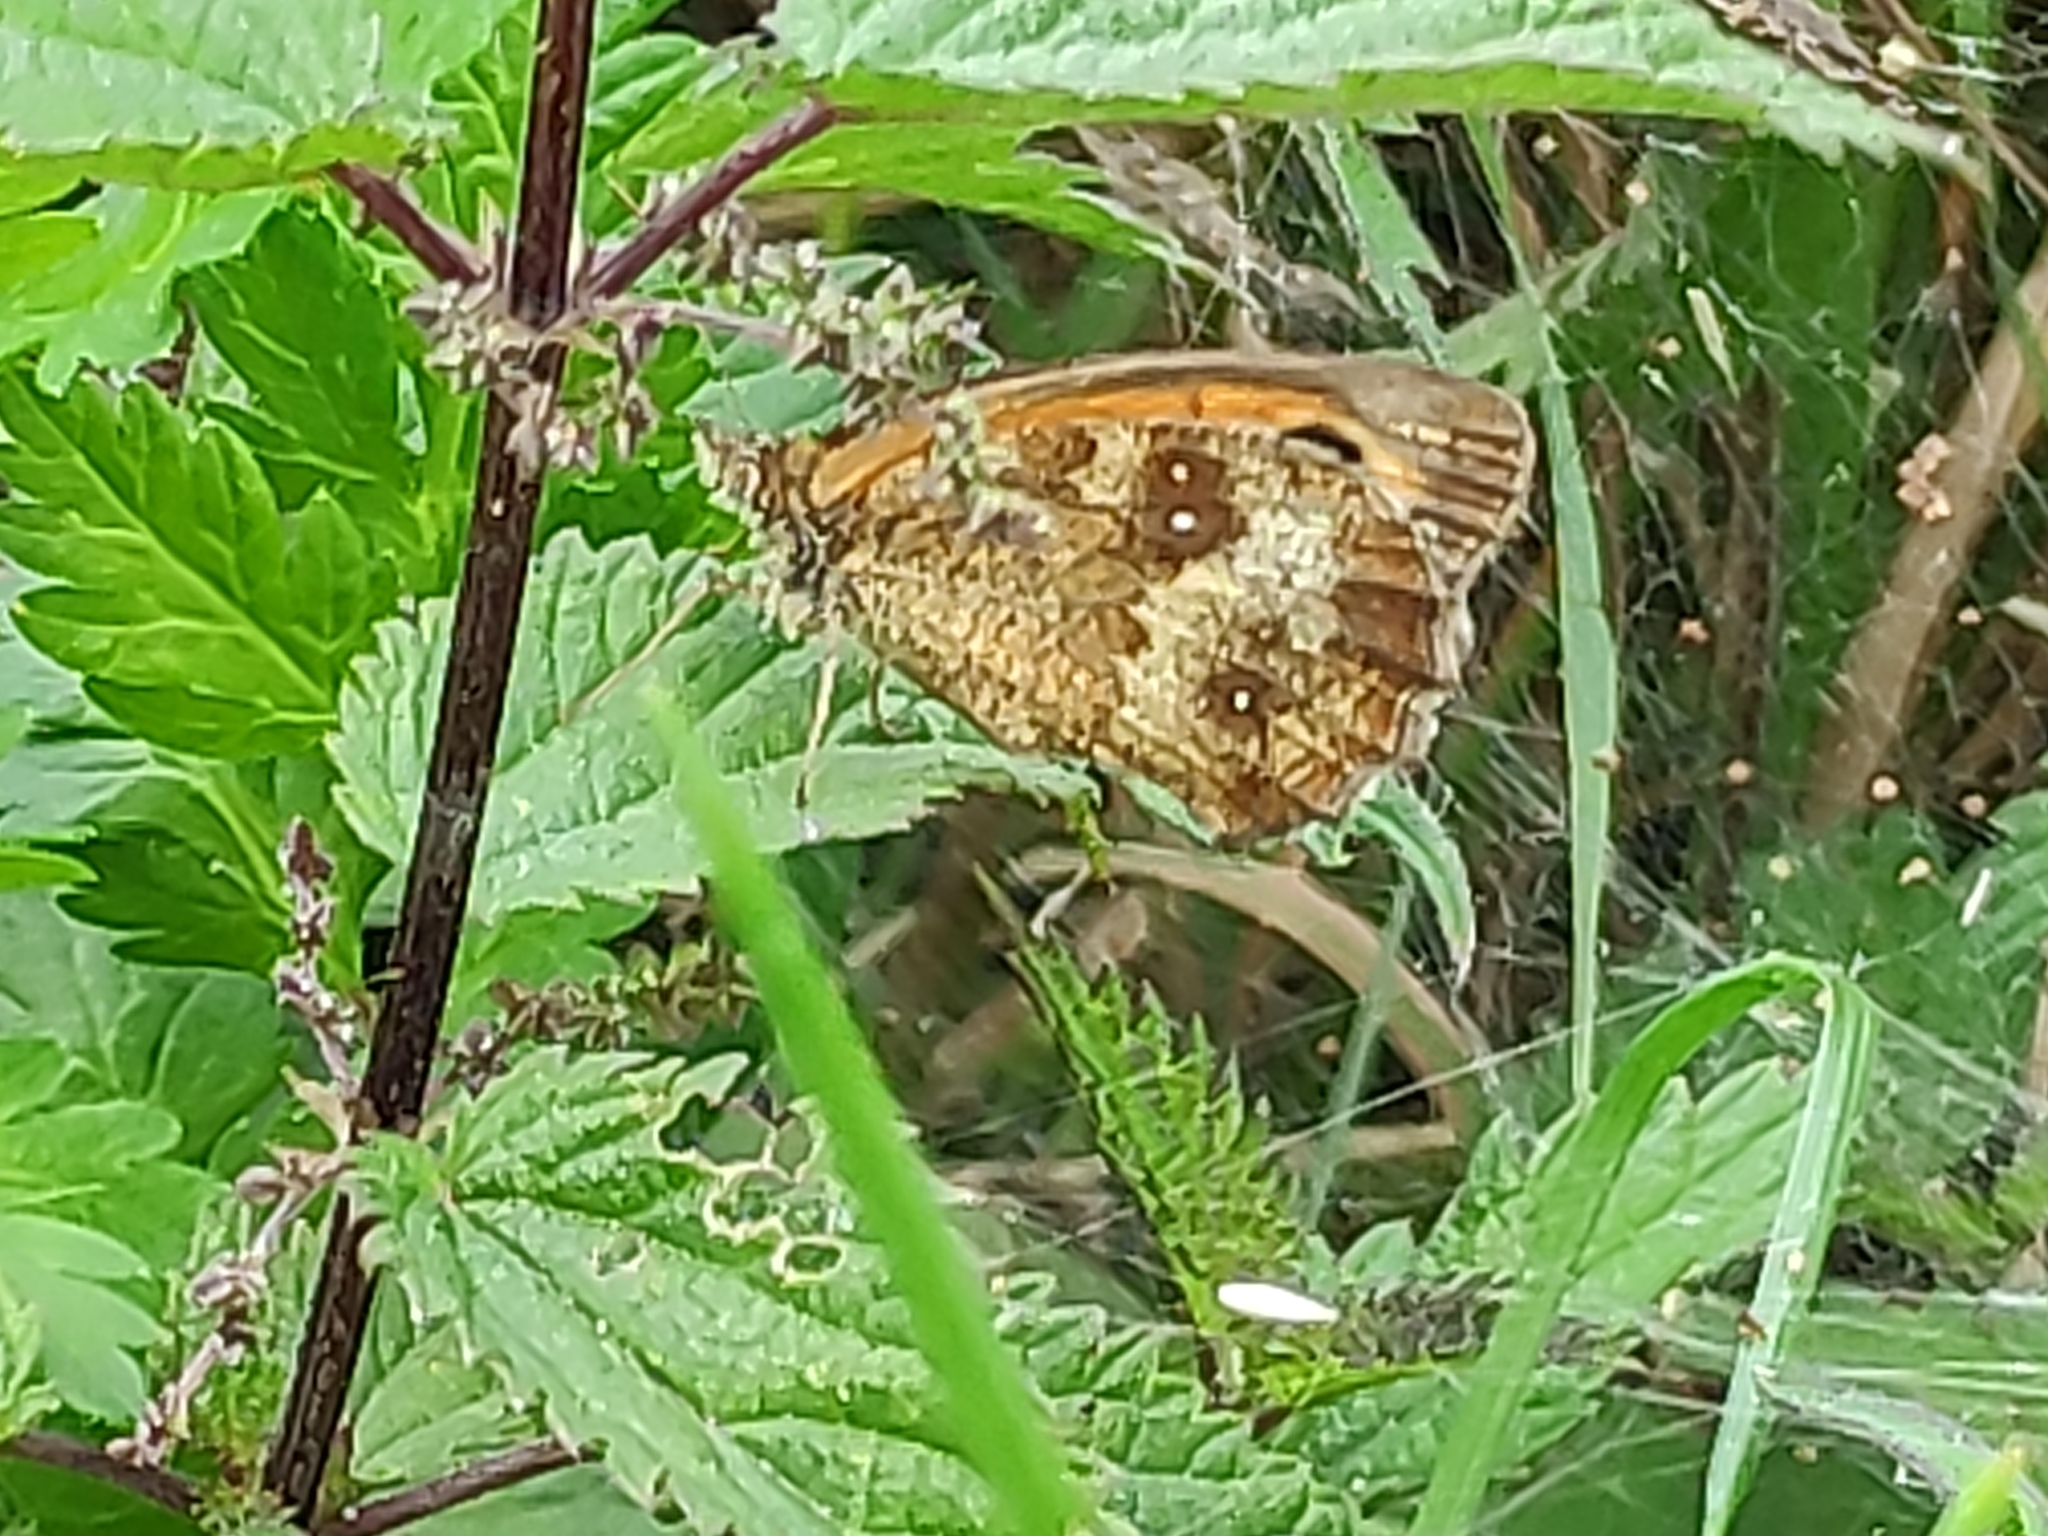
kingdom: Animalia
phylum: Arthropoda
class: Insecta
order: Lepidoptera
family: Nymphalidae
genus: Pyronia
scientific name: Pyronia tithonus
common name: Gatekeeper
